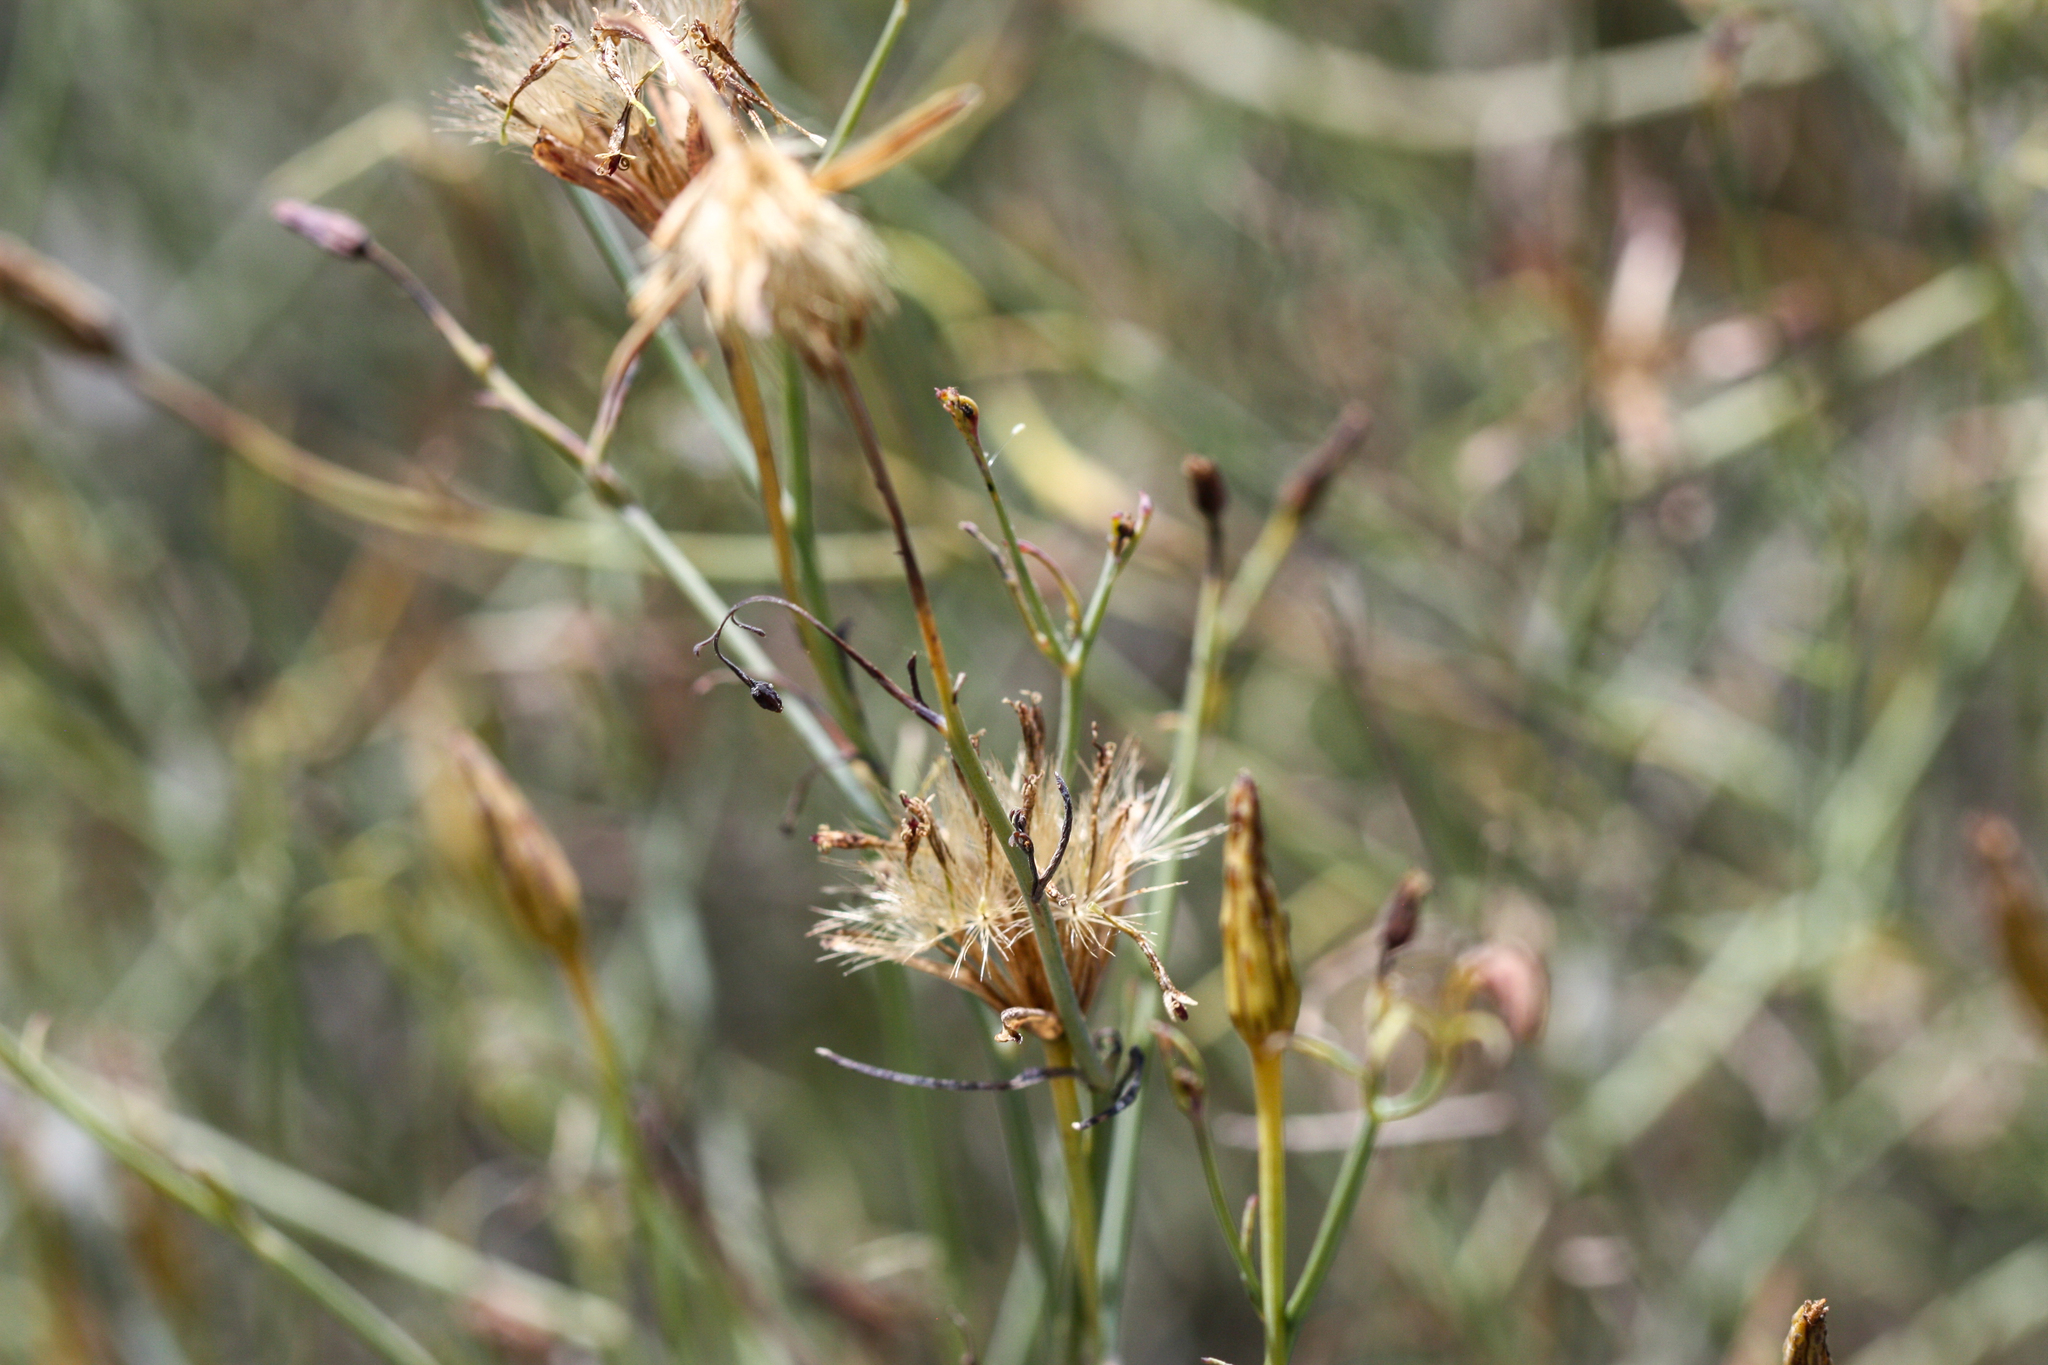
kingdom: Plantae
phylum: Tracheophyta
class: Magnoliopsida
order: Asterales
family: Asteraceae
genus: Porophyllum
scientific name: Porophyllum gracile
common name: Odora
